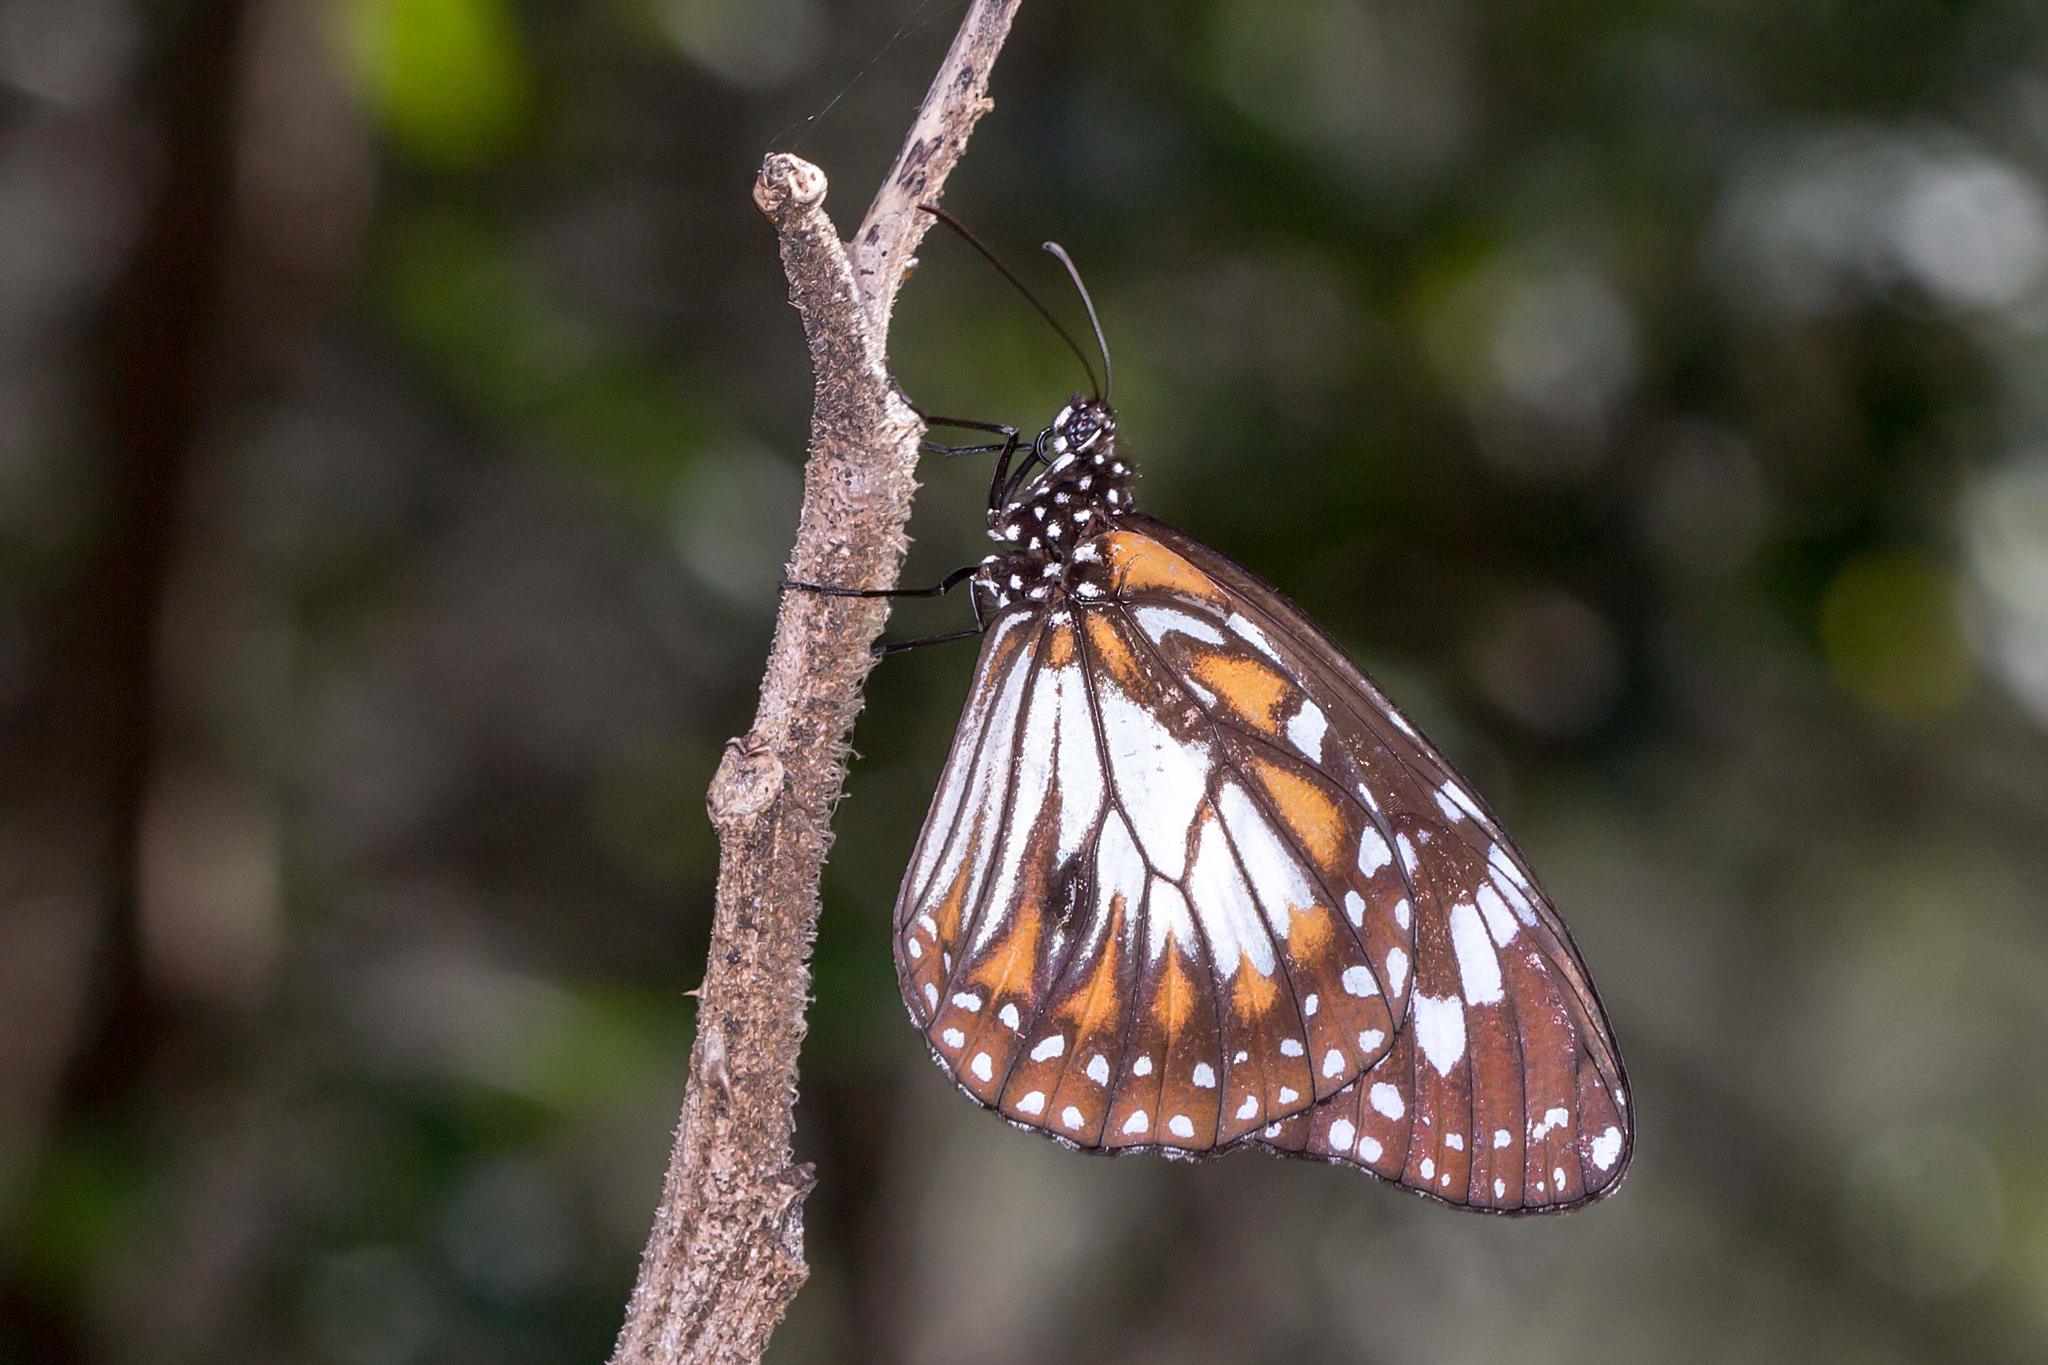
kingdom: Animalia
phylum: Arthropoda
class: Insecta
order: Lepidoptera
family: Nymphalidae
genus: Danaus
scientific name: Danaus affinis
